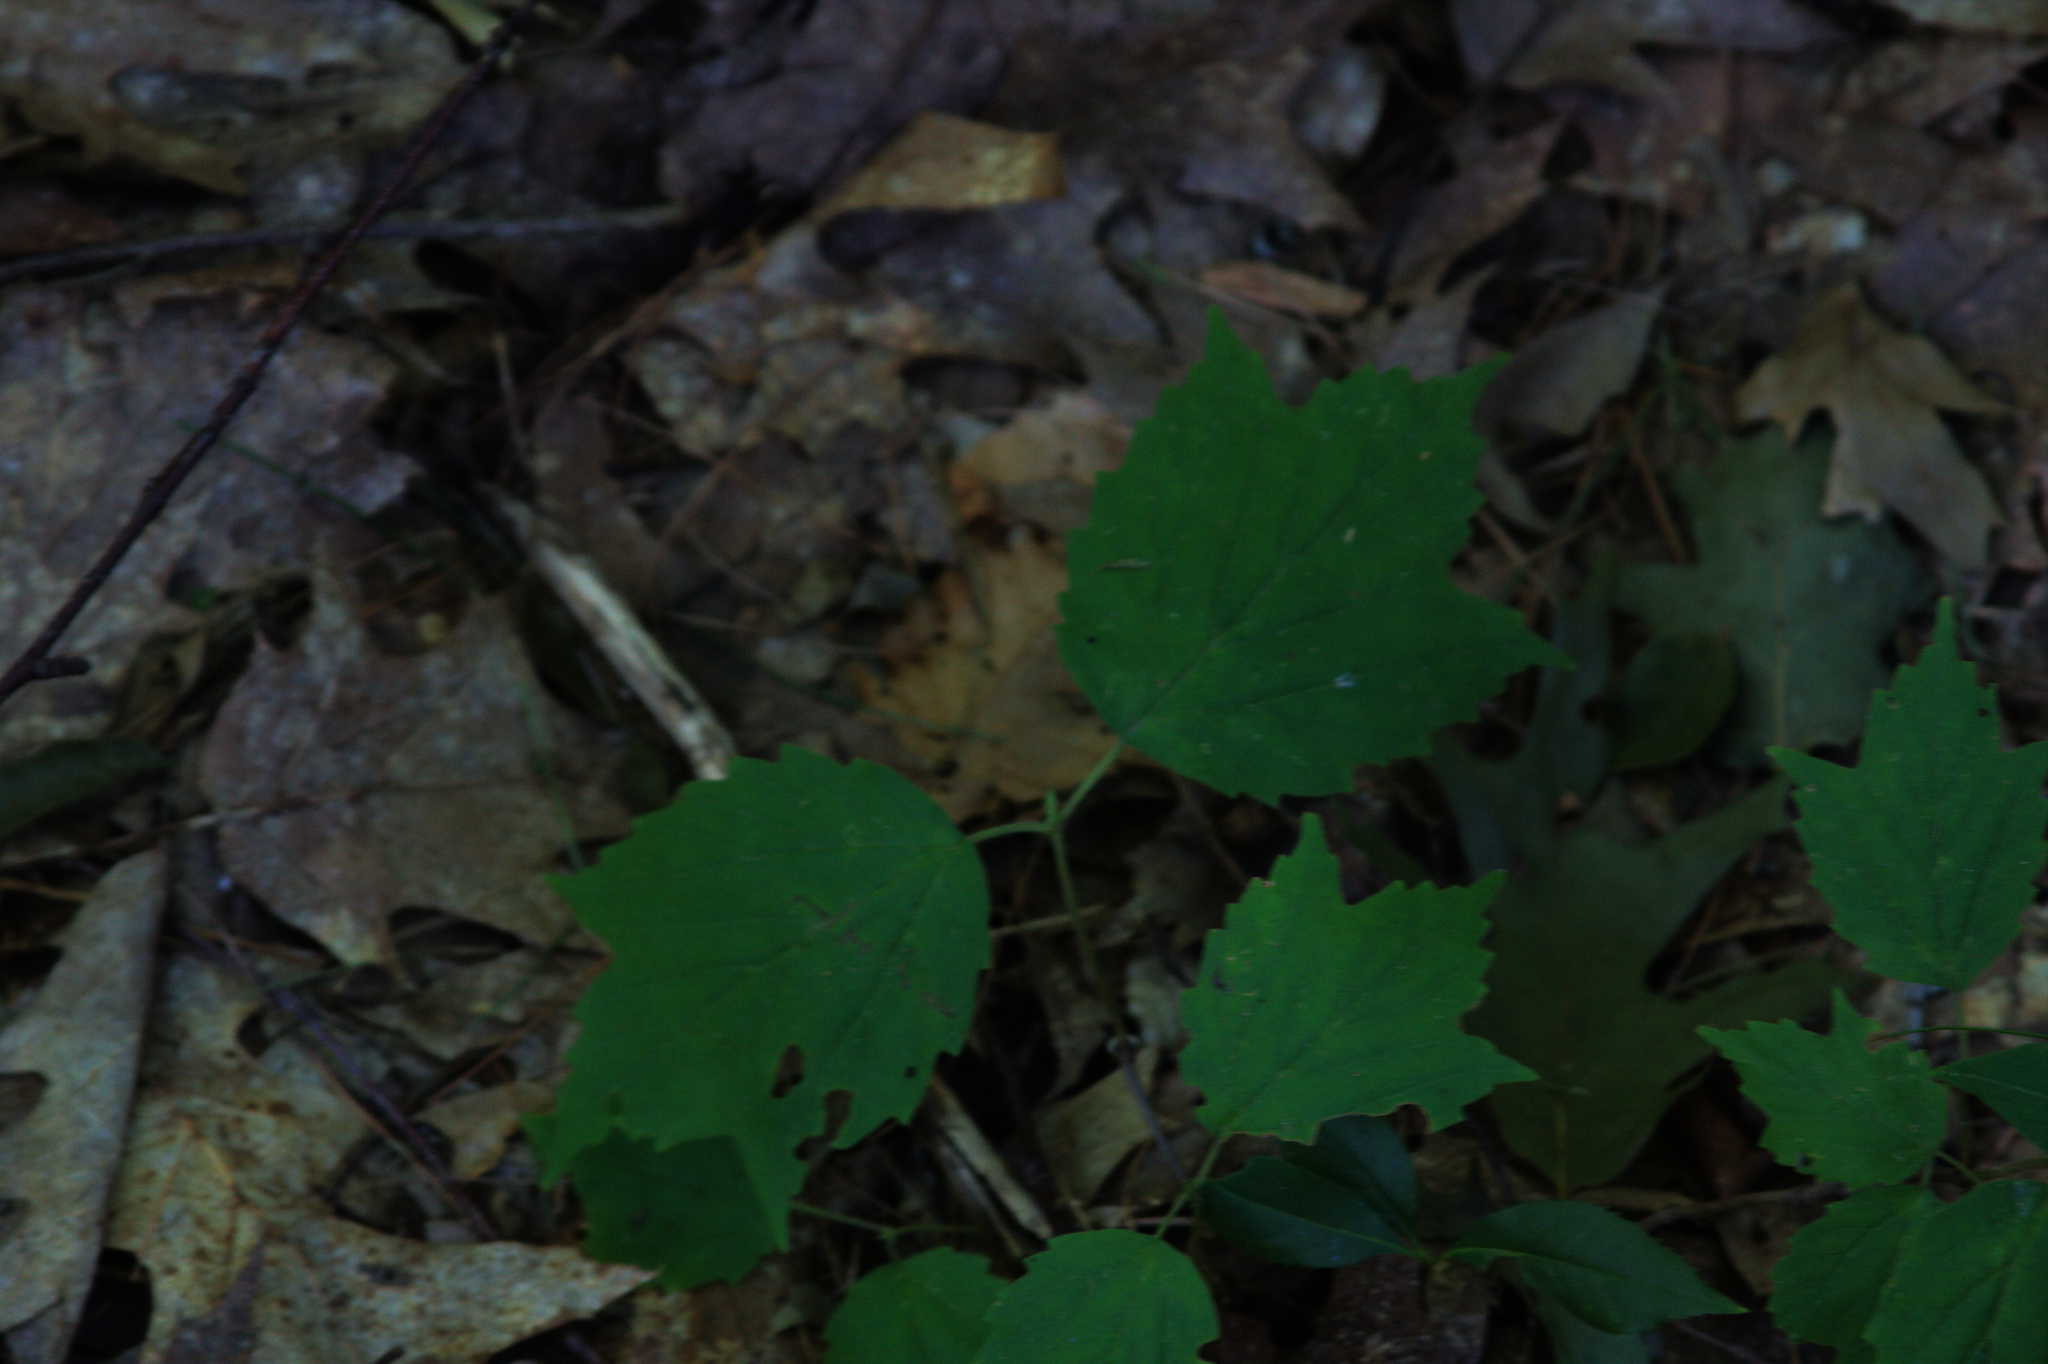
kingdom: Plantae
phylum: Tracheophyta
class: Magnoliopsida
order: Dipsacales
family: Viburnaceae
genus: Viburnum
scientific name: Viburnum acerifolium
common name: Dockmackie
